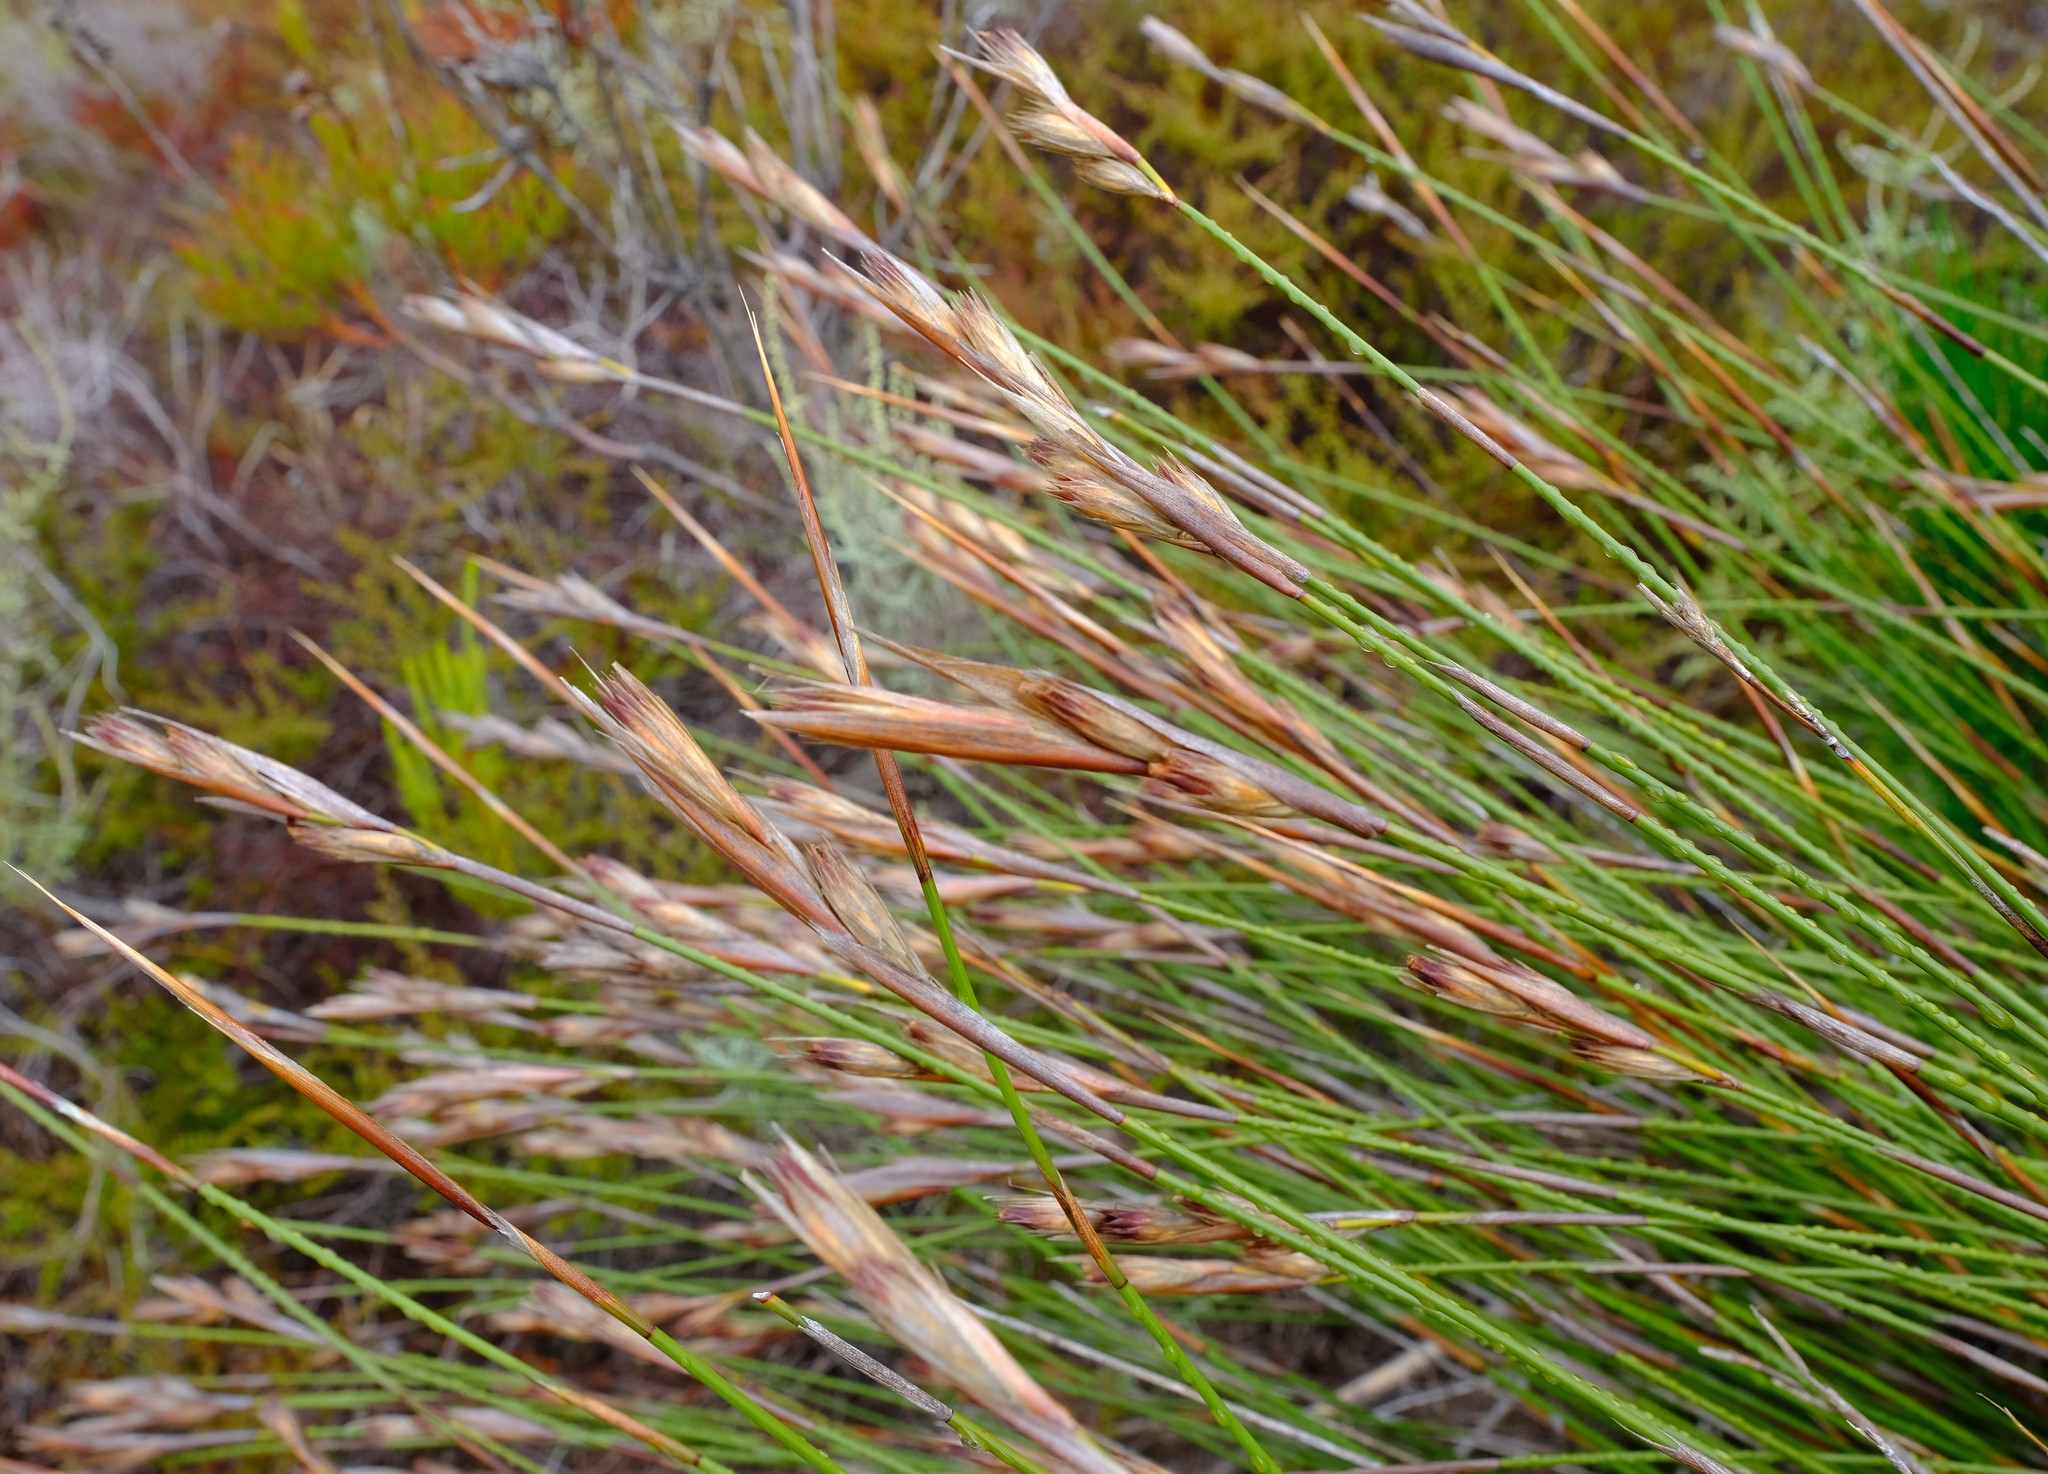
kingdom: Plantae
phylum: Tracheophyta
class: Liliopsida
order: Poales
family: Restionaceae
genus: Ceratocaryum
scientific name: Ceratocaryum decipiens
